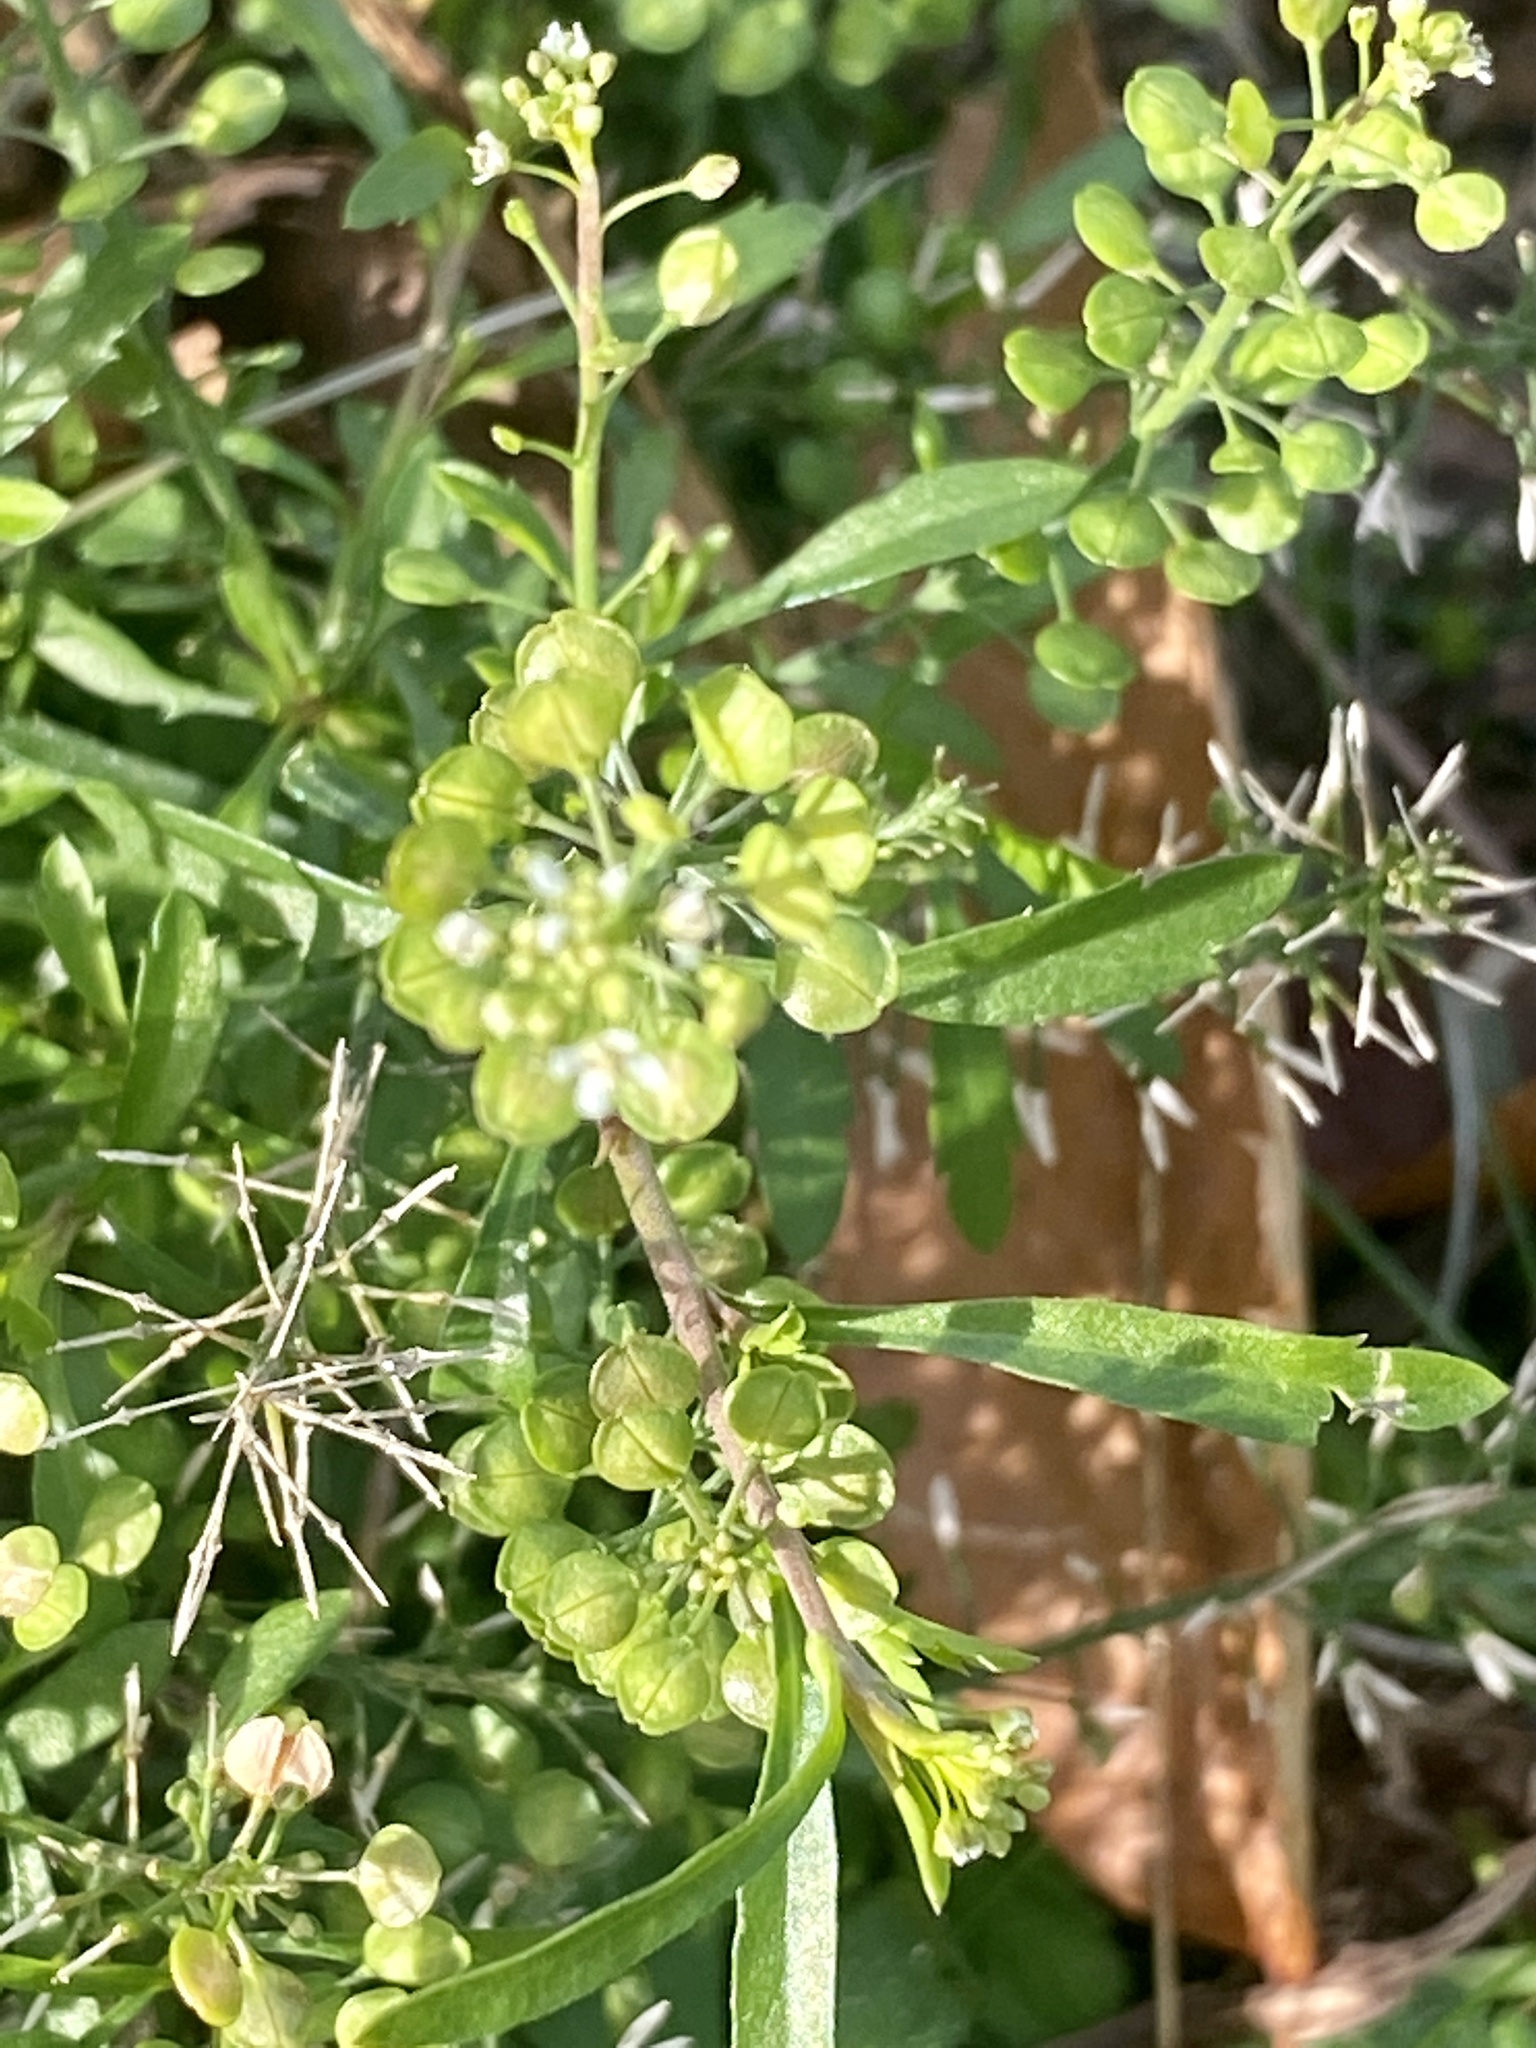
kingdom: Plantae
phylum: Tracheophyta
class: Magnoliopsida
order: Brassicales
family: Brassicaceae
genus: Lepidium
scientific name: Lepidium virginicum
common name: Least pepperwort
